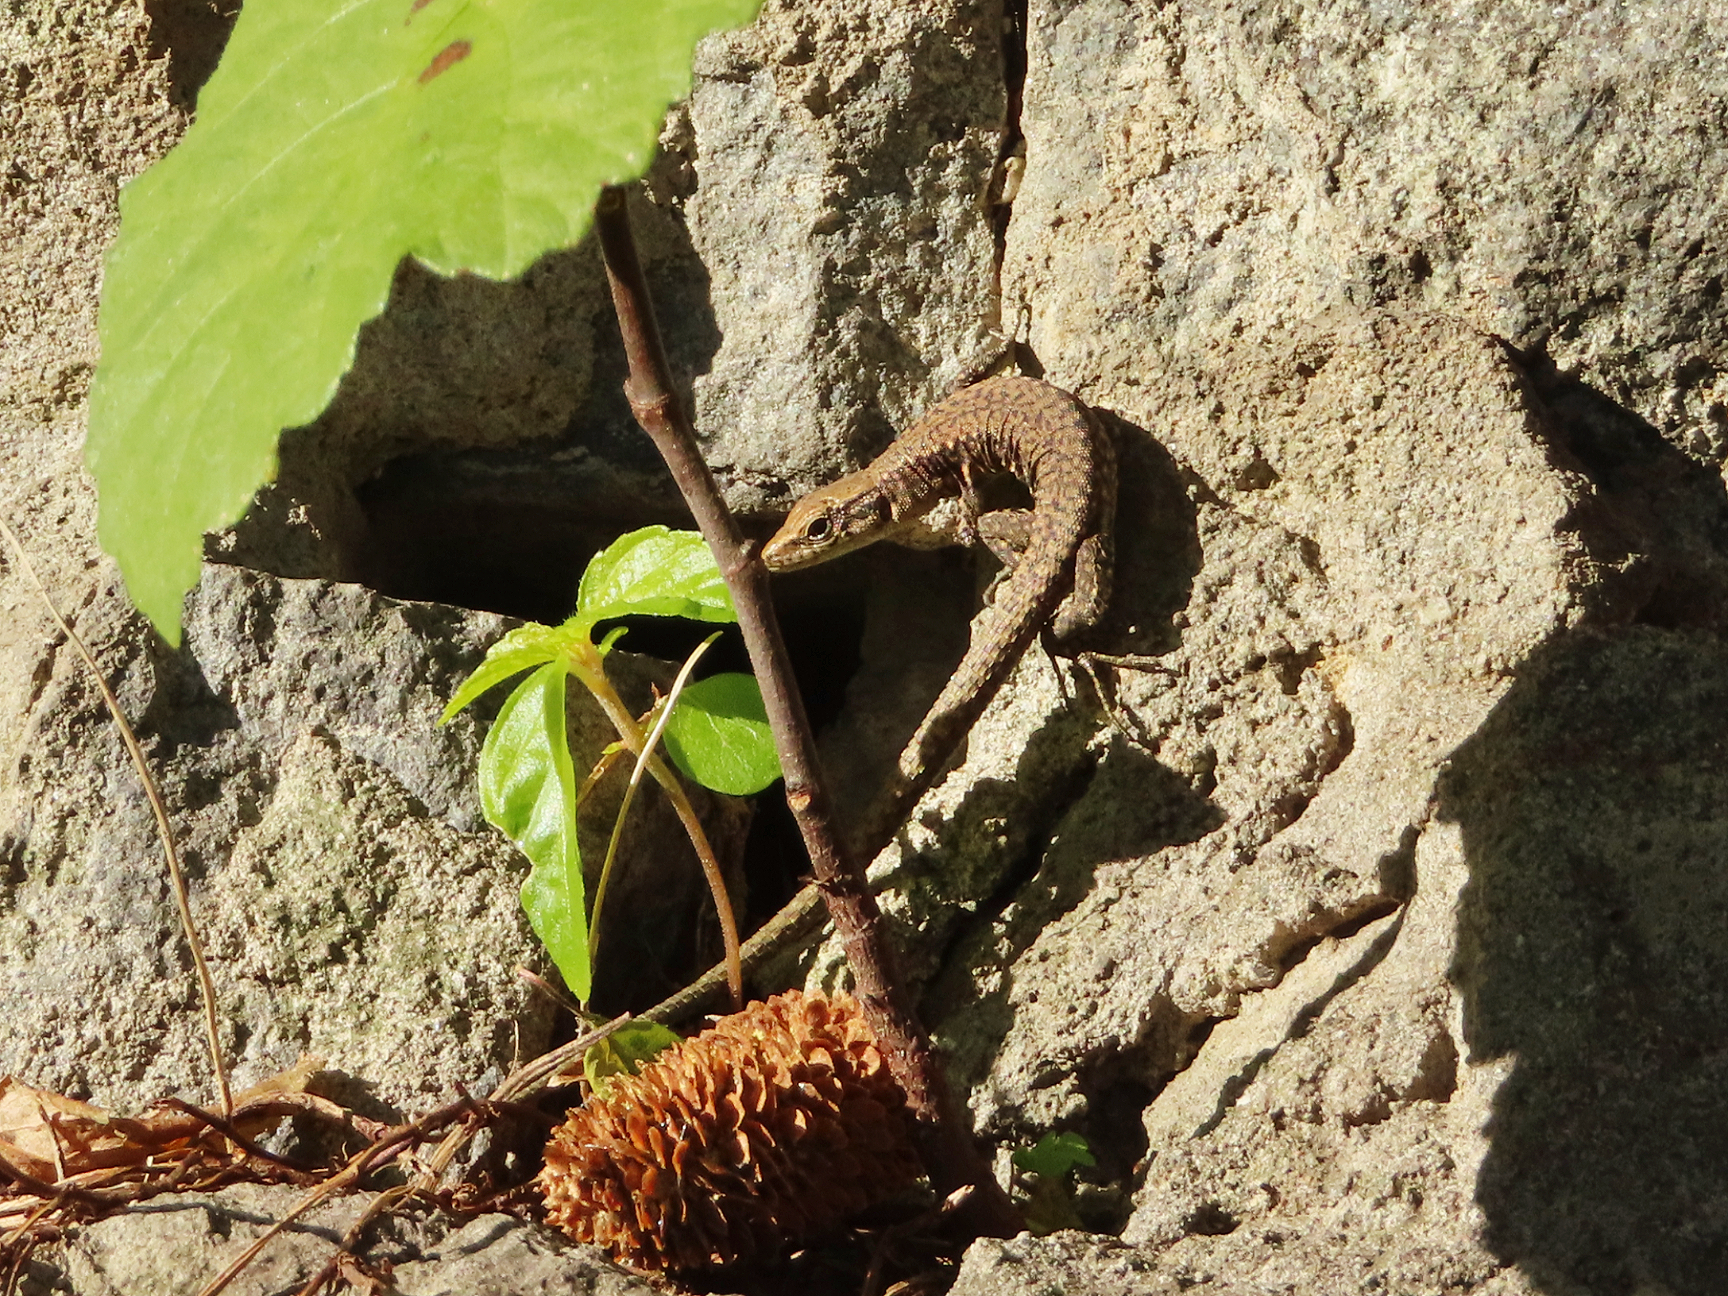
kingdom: Animalia
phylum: Chordata
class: Squamata
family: Lacertidae
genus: Darevskia
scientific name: Darevskia mixta
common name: Ajarian lizard
